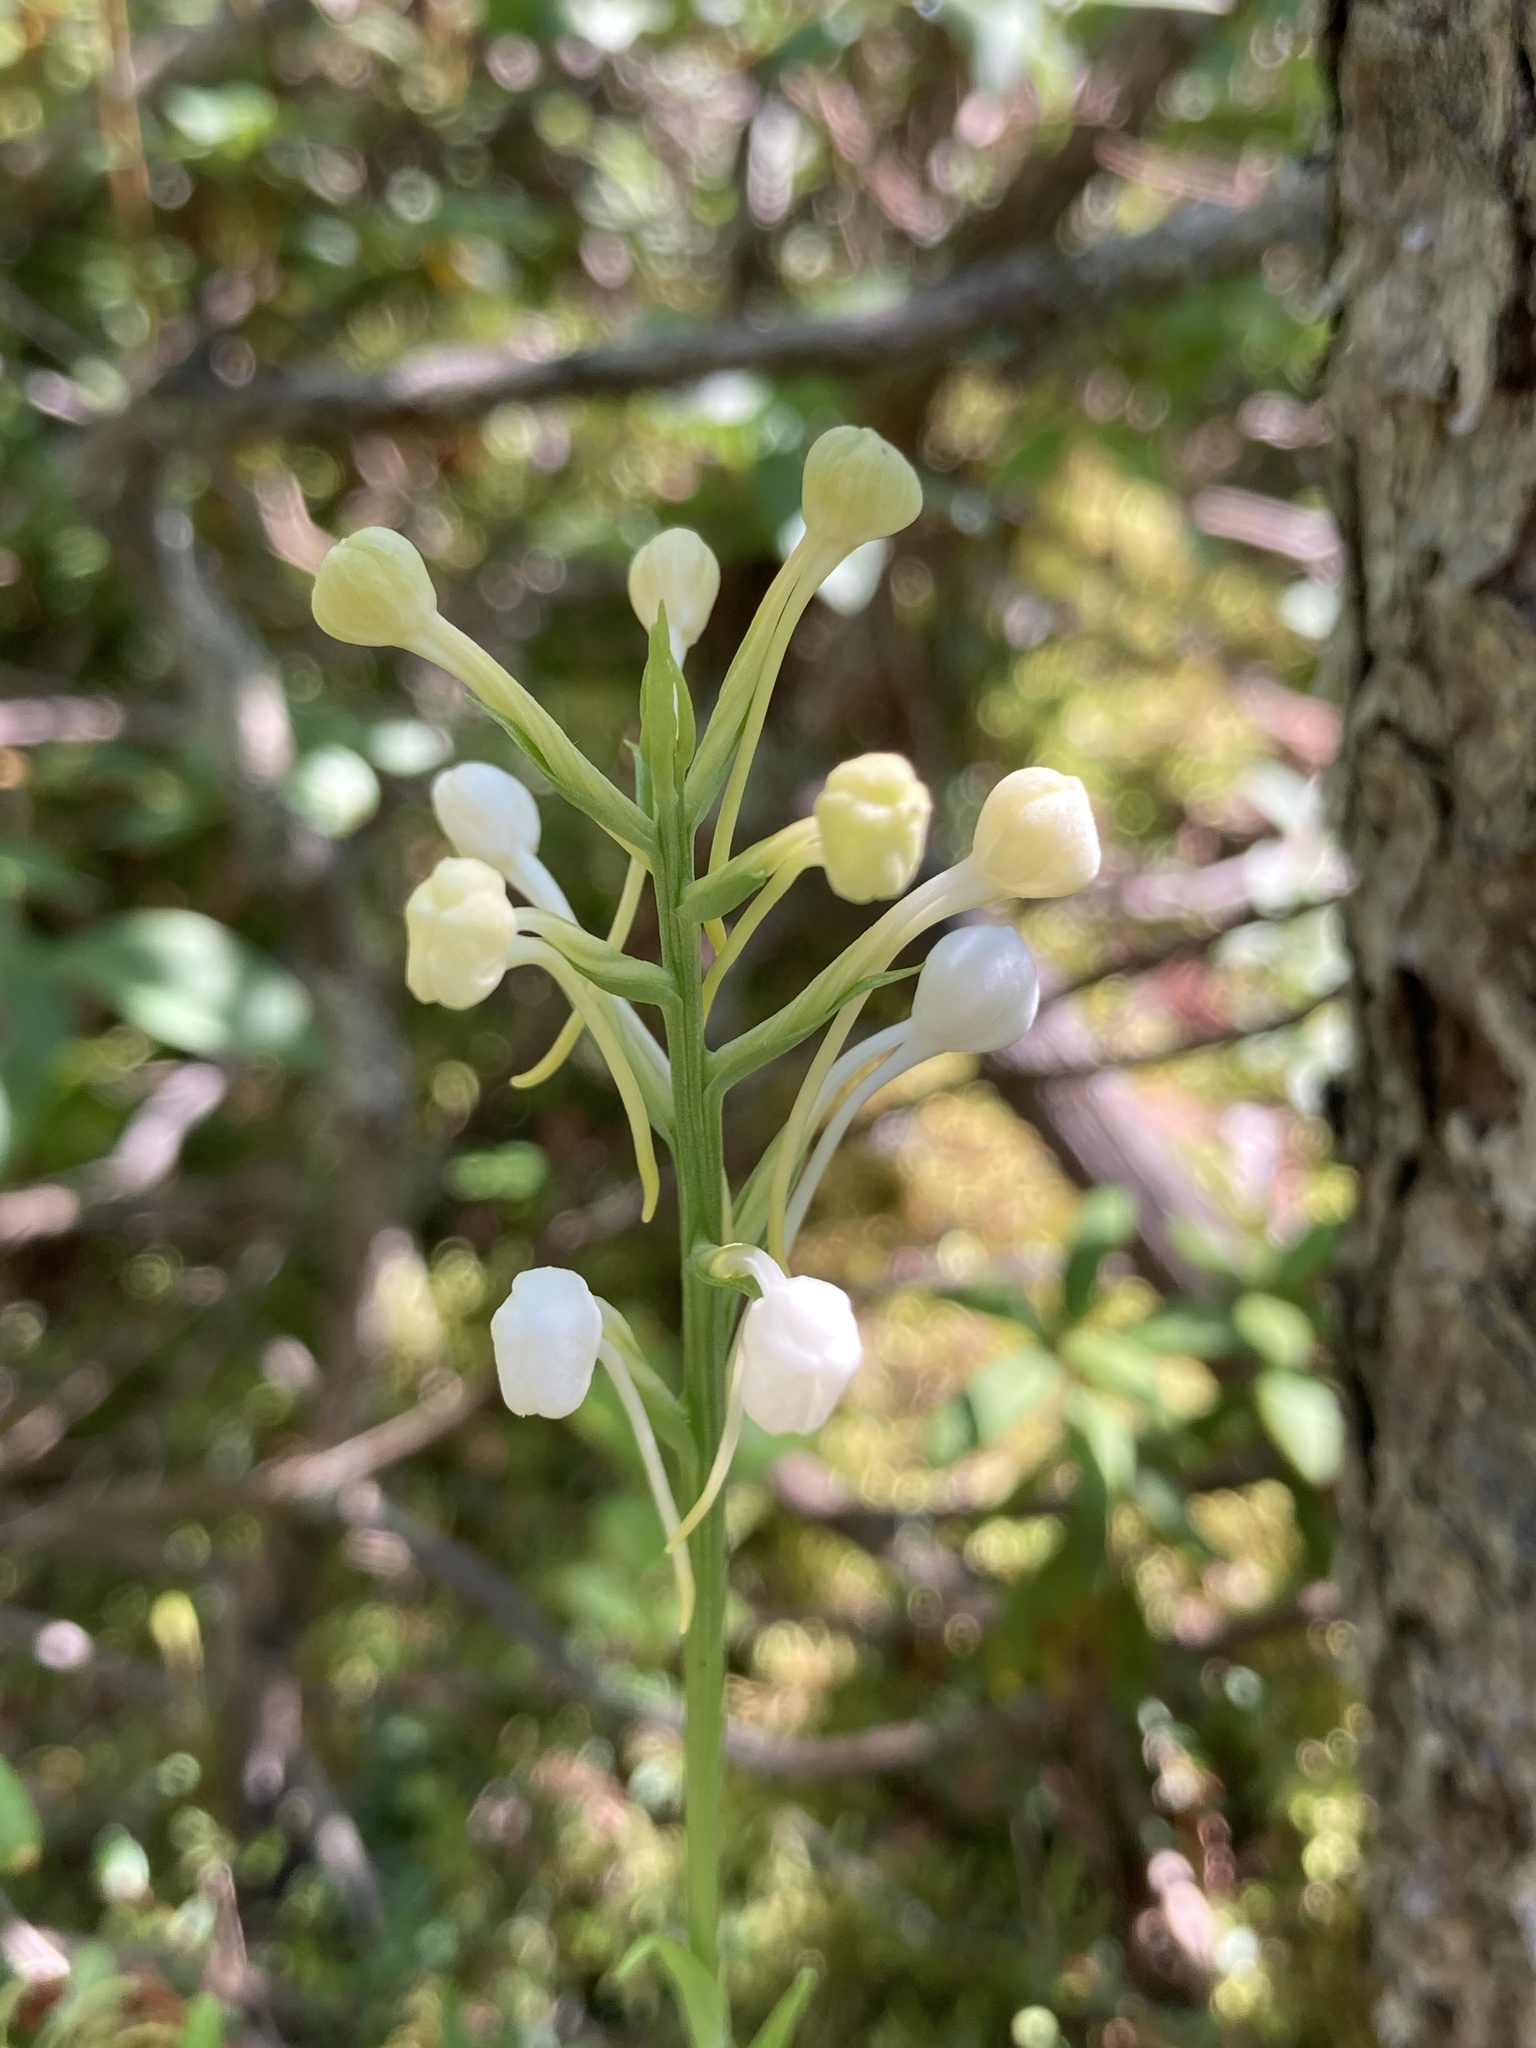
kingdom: Plantae
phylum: Tracheophyta
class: Liliopsida
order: Asparagales
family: Orchidaceae
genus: Platanthera
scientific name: Platanthera blephariglottis
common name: White fringed orchid
